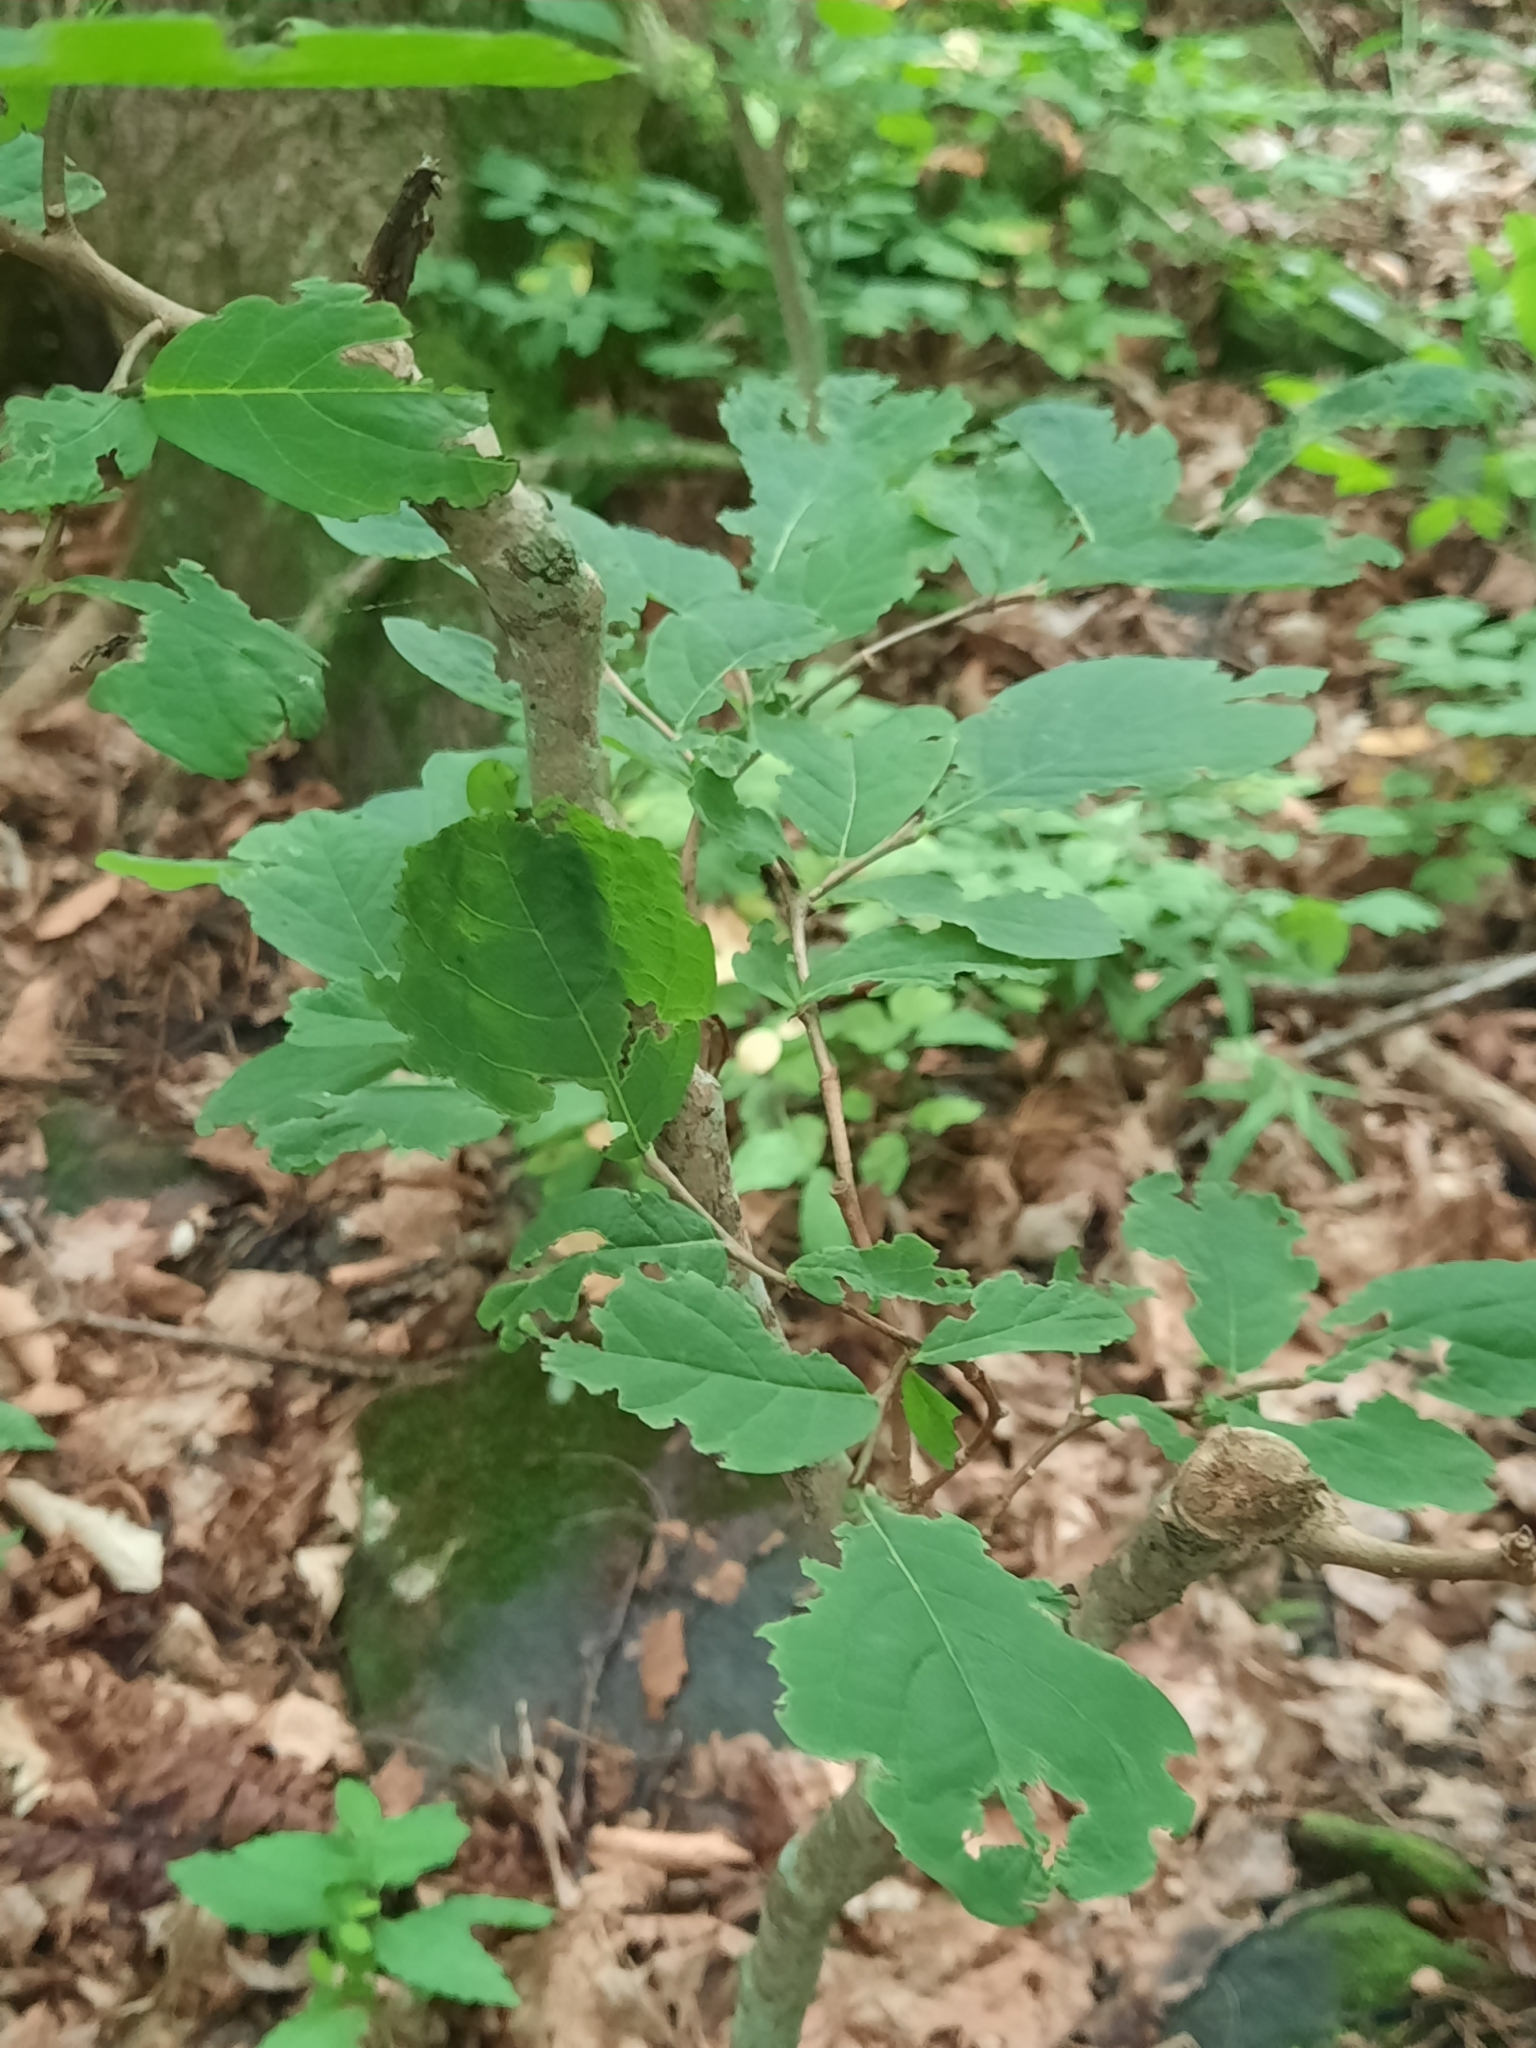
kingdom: Plantae
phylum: Tracheophyta
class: Magnoliopsida
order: Malvales
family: Thymelaeaceae
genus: Dirca
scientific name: Dirca palustris
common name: Leatherwood
